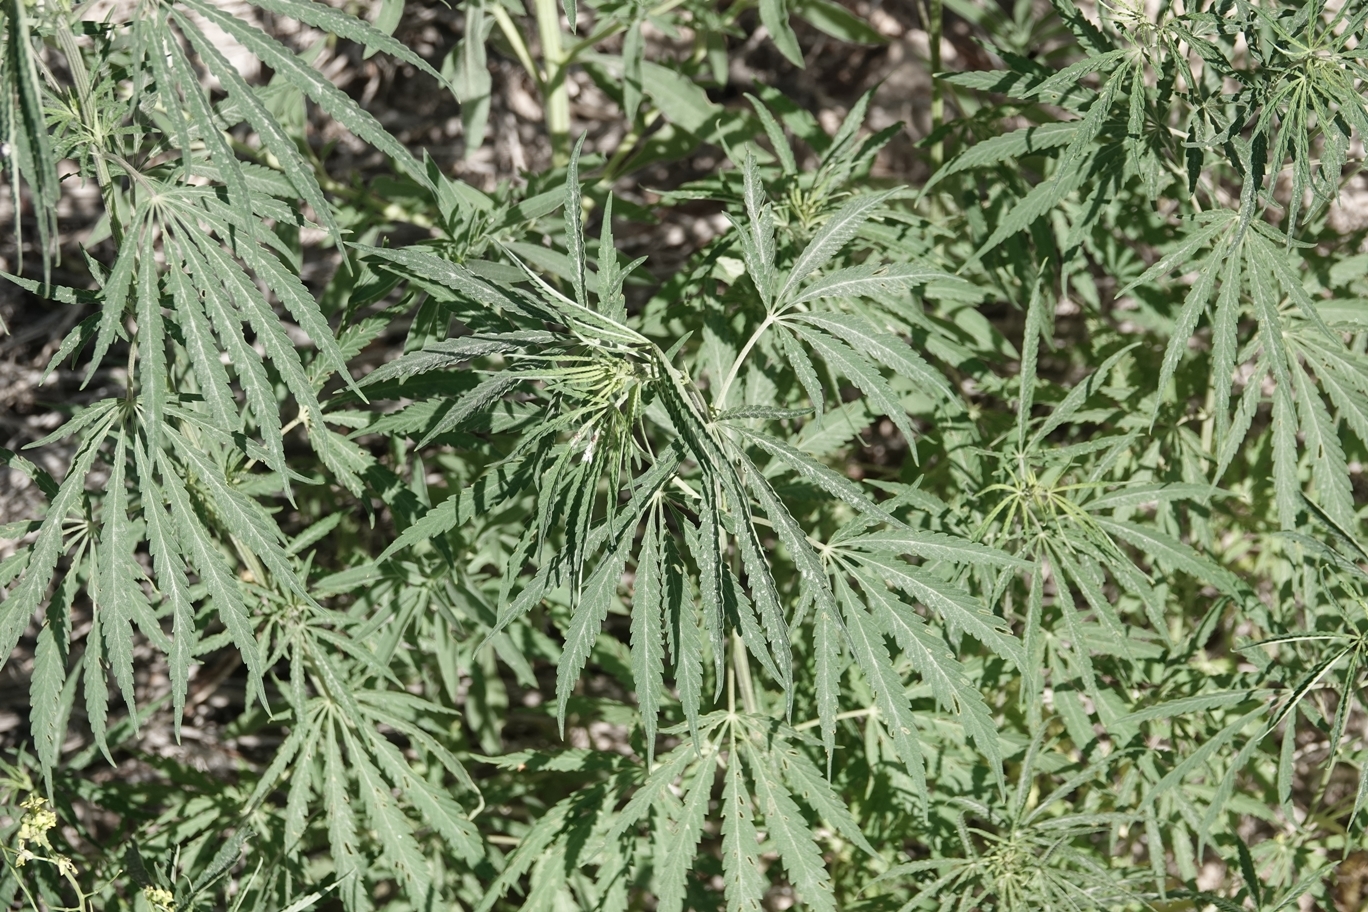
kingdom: Plantae
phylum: Tracheophyta
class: Magnoliopsida
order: Rosales
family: Cannabaceae
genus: Cannabis
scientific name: Cannabis sativa
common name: Hemp
